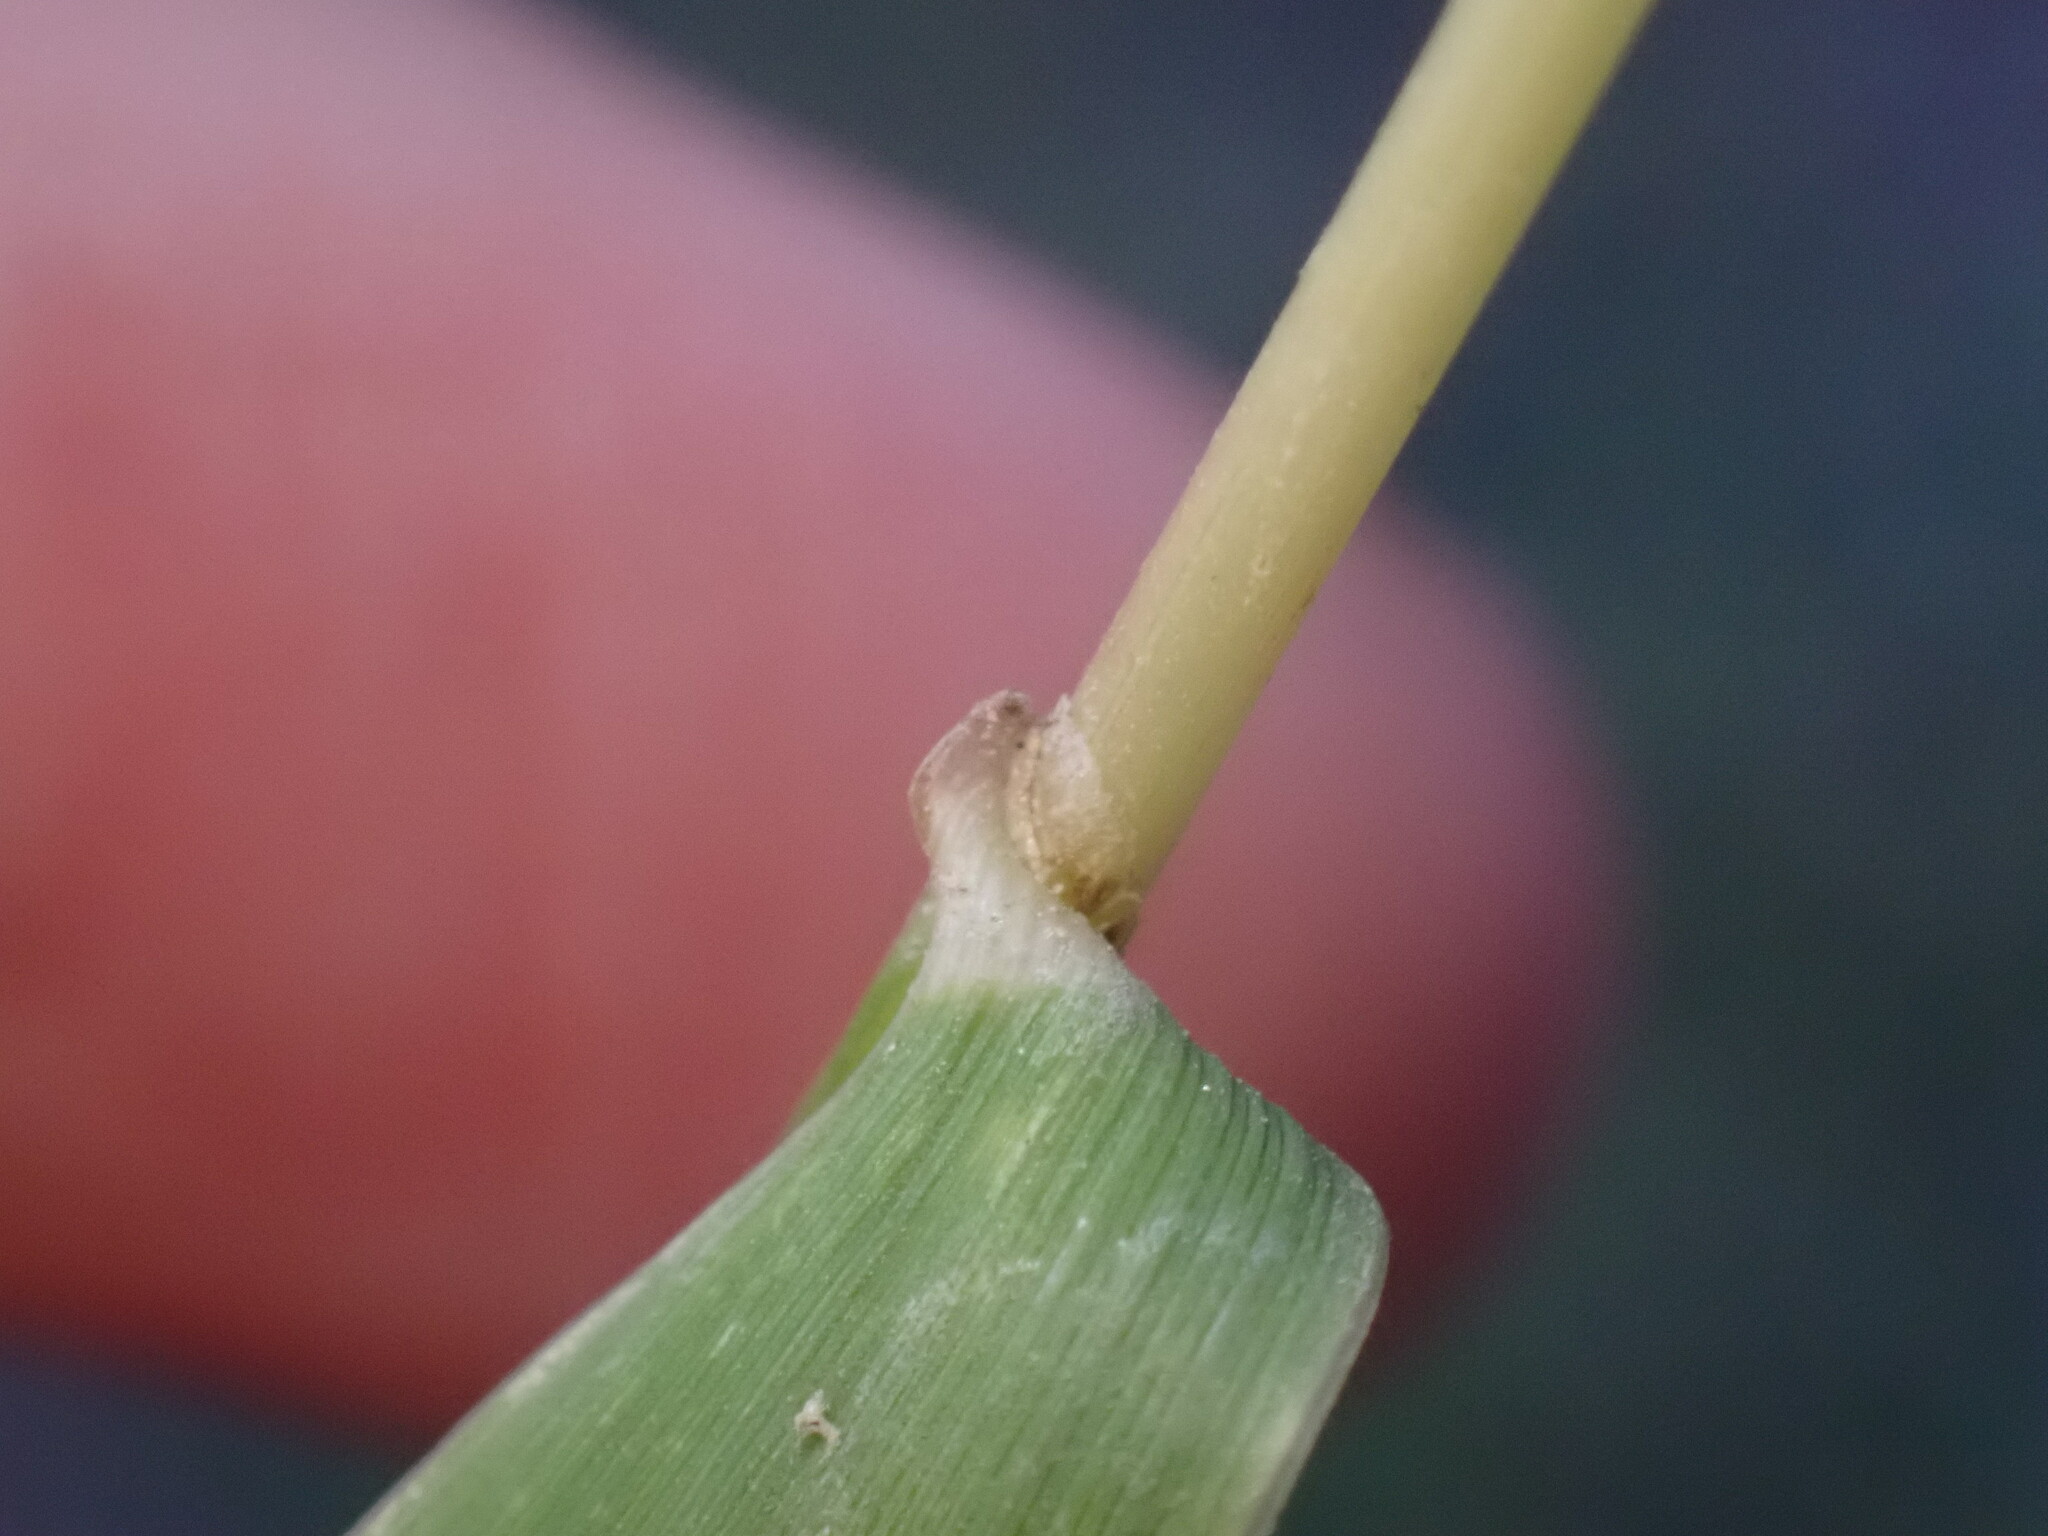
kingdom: Plantae
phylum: Tracheophyta
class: Liliopsida
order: Poales
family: Poaceae
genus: Elymus
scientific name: Elymus canadensis
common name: Canada wild rye
